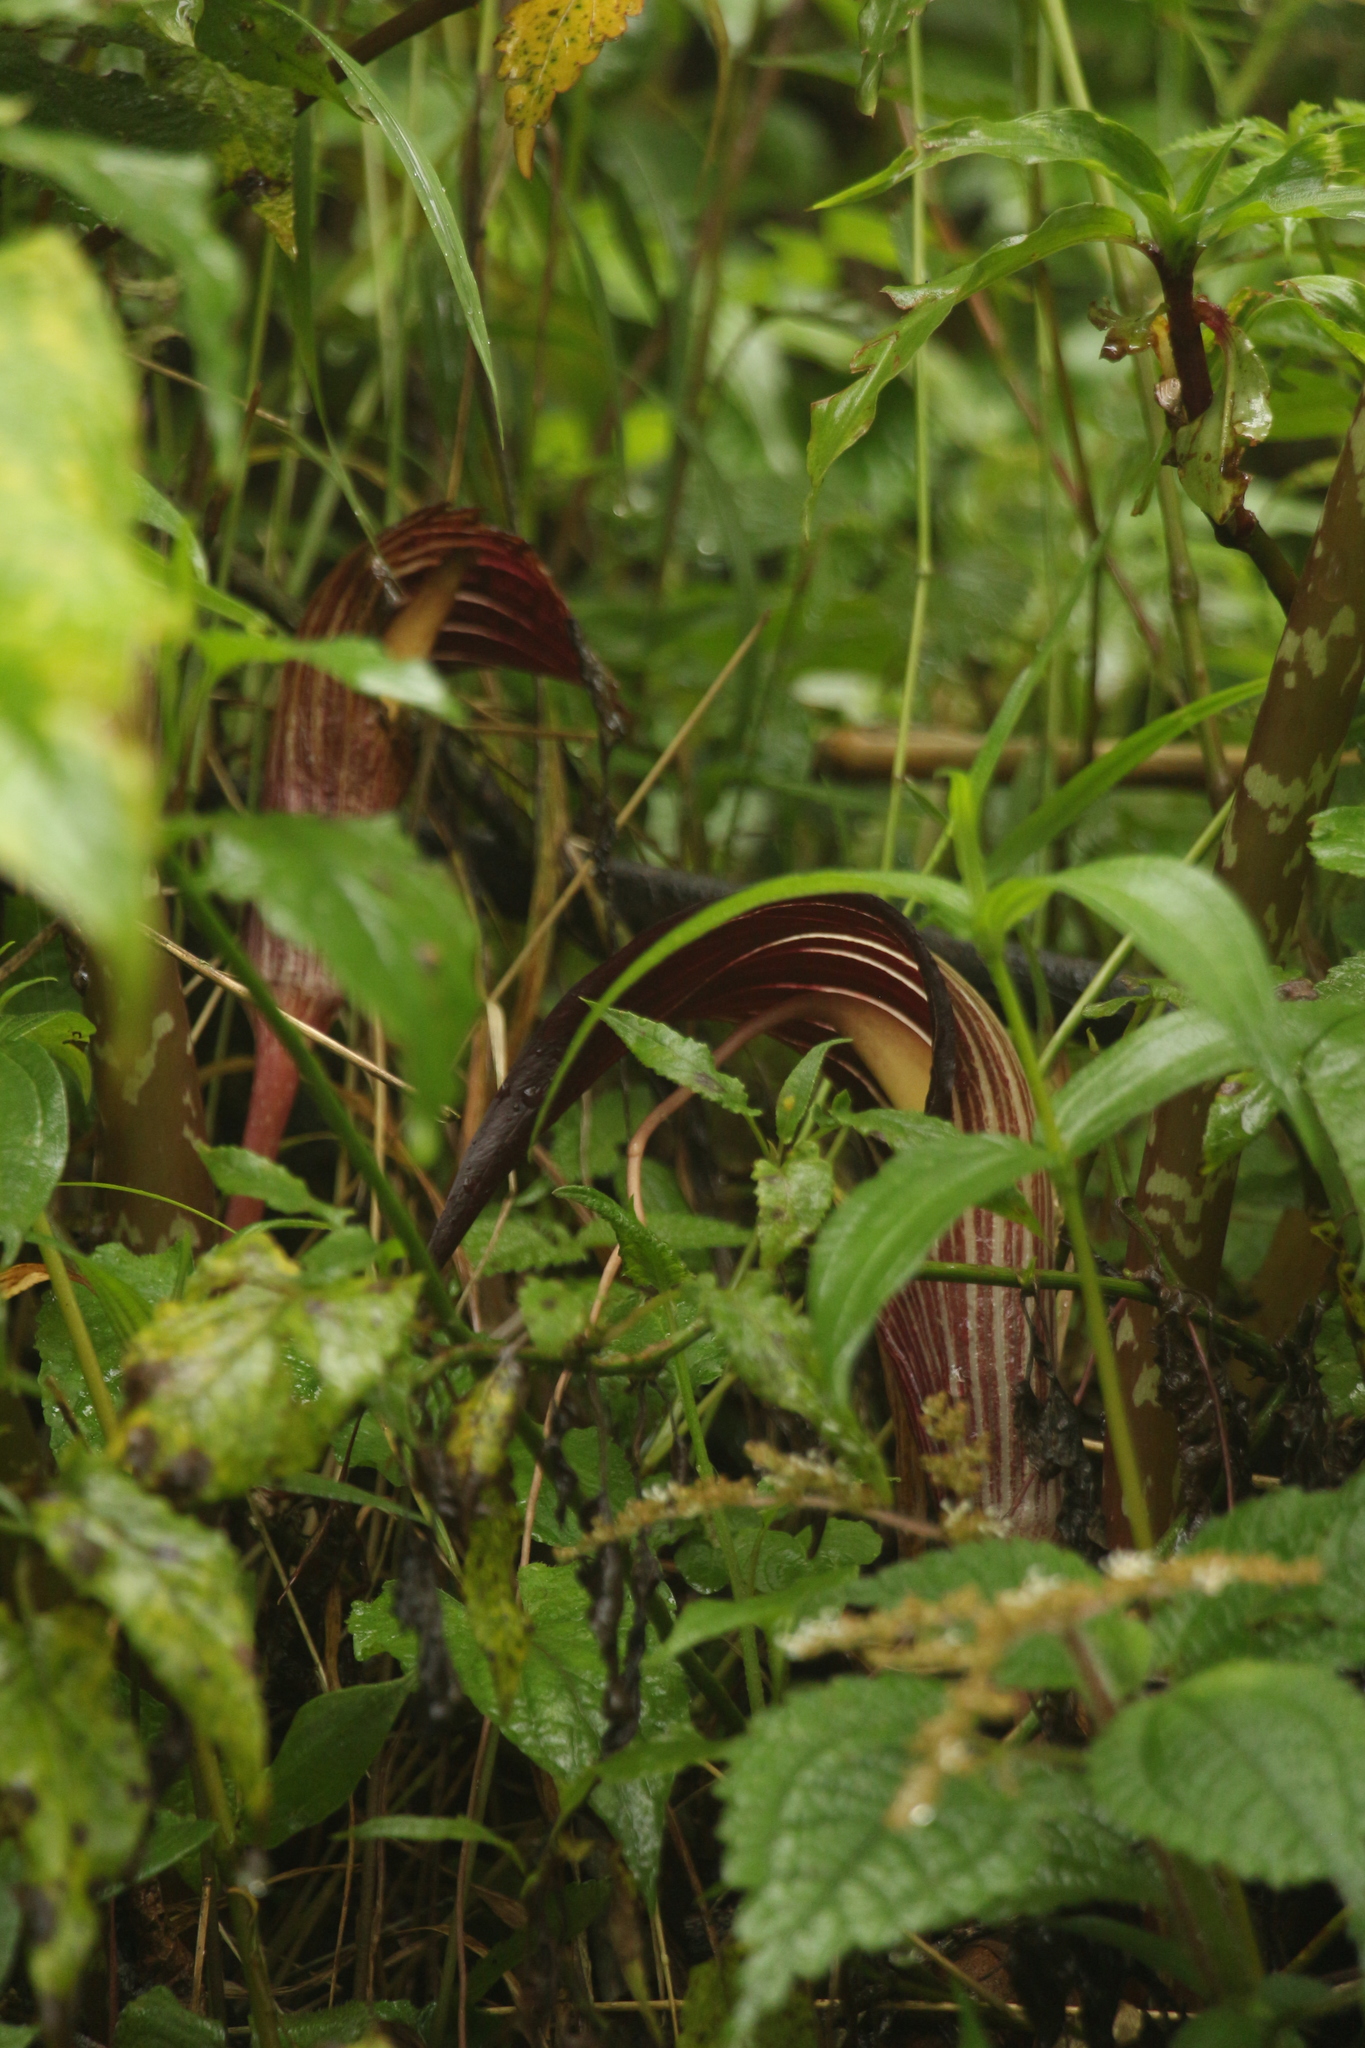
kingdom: Plantae
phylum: Tracheophyta
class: Liliopsida
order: Alismatales
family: Araceae
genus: Arisaema
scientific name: Arisaema speciosum
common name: Showy cobra-lily
